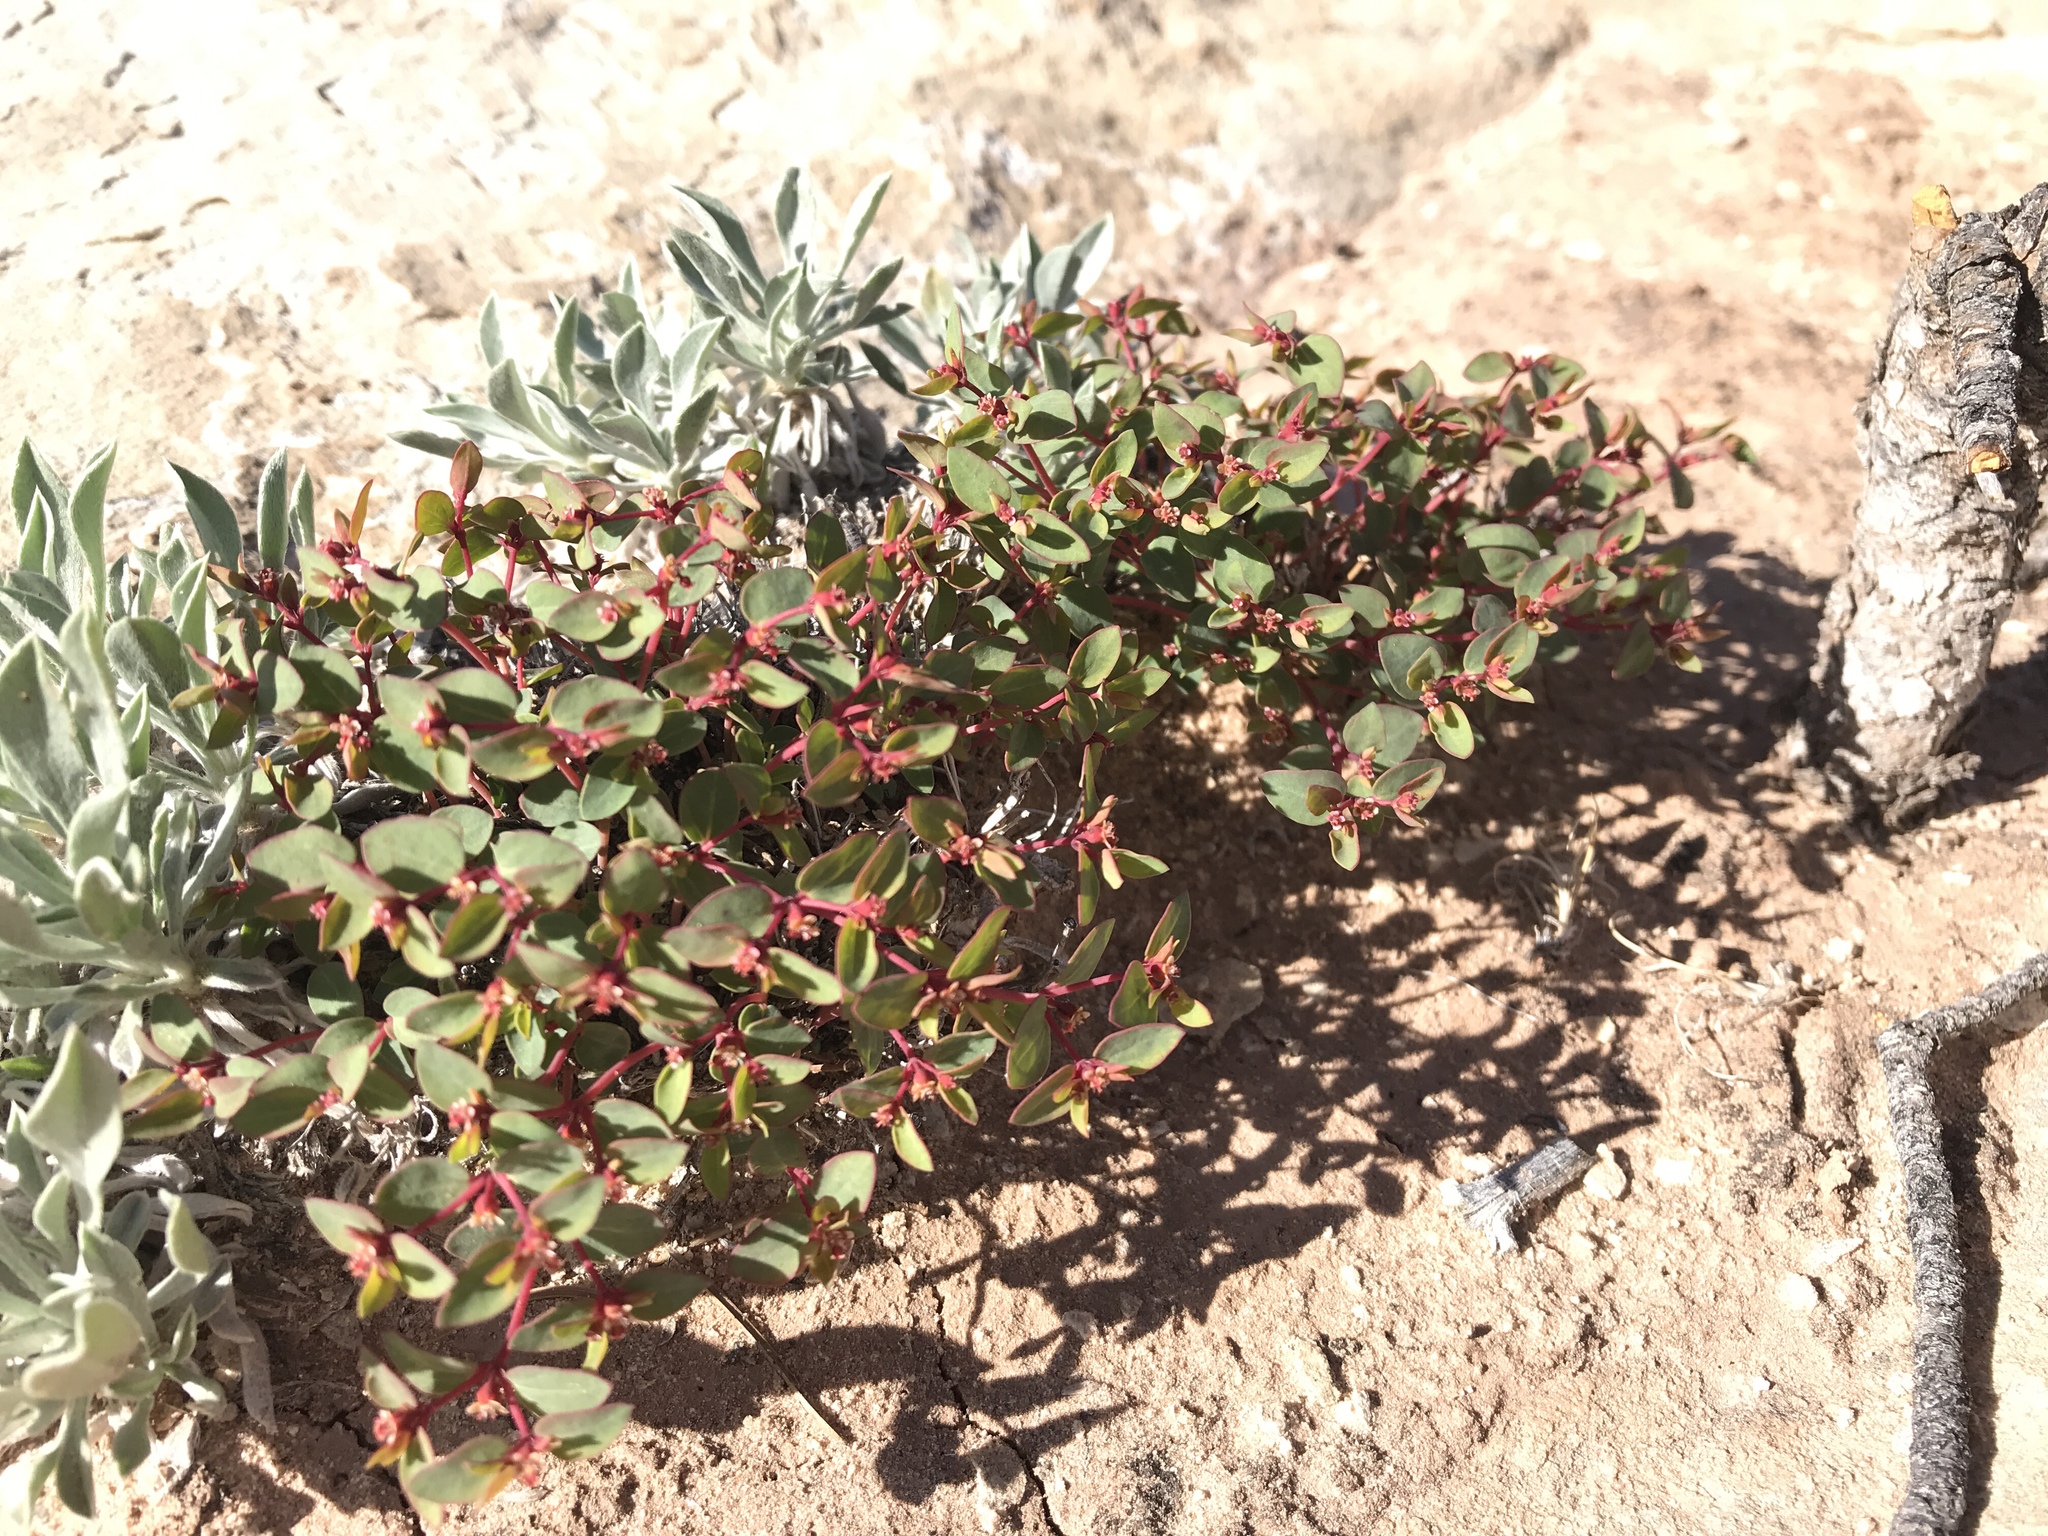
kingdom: Plantae
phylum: Tracheophyta
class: Magnoliopsida
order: Malpighiales
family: Euphorbiaceae
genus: Euphorbia
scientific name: Euphorbia fendleri
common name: Fendler's euphorbia
